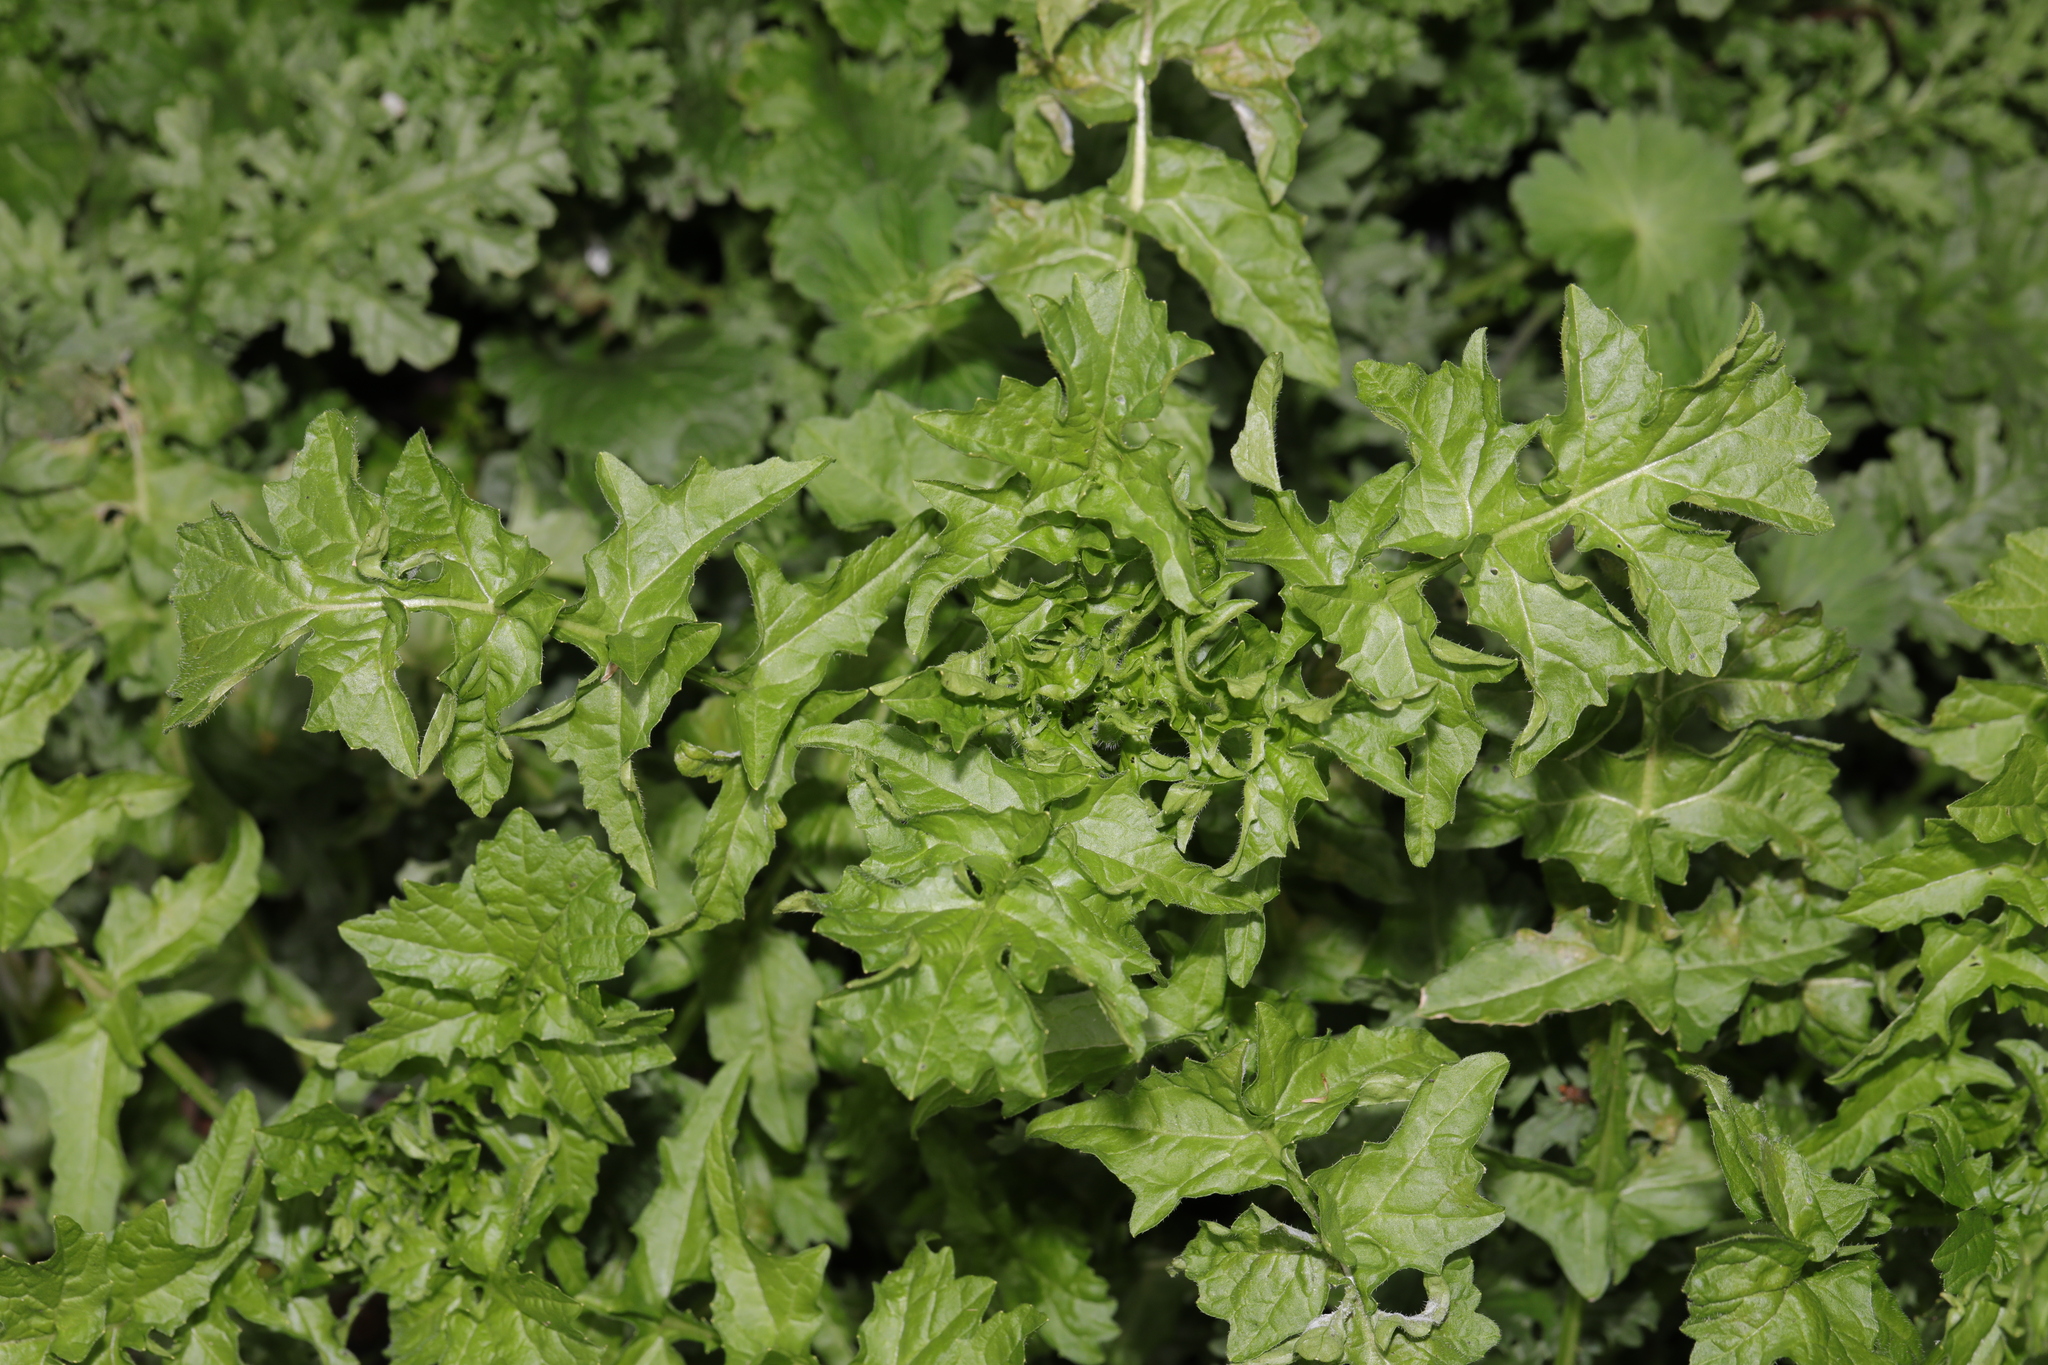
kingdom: Plantae
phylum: Tracheophyta
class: Magnoliopsida
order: Brassicales
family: Brassicaceae
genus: Sisymbrium
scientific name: Sisymbrium officinale
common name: Hedge mustard
